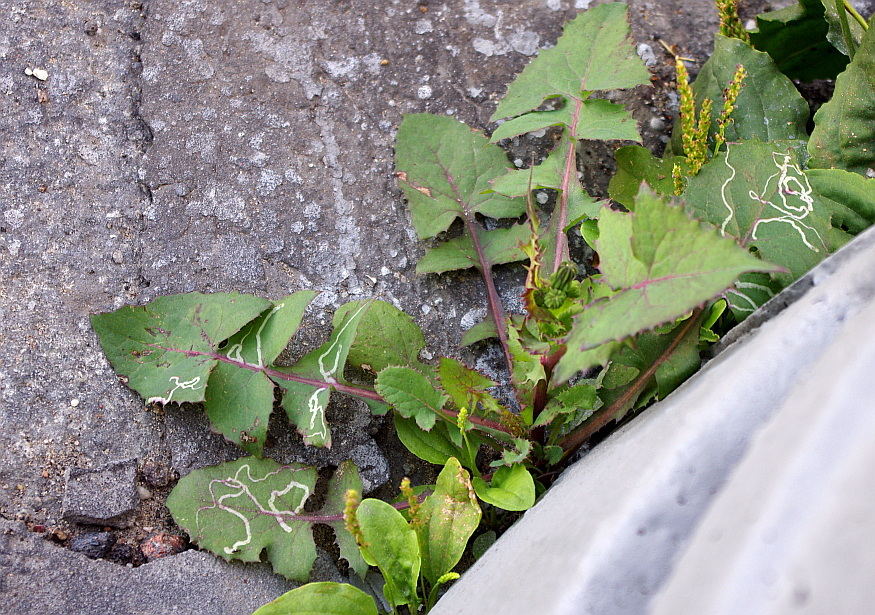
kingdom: Plantae
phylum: Tracheophyta
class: Magnoliopsida
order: Asterales
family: Asteraceae
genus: Sonchus
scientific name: Sonchus oleraceus
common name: Common sowthistle
